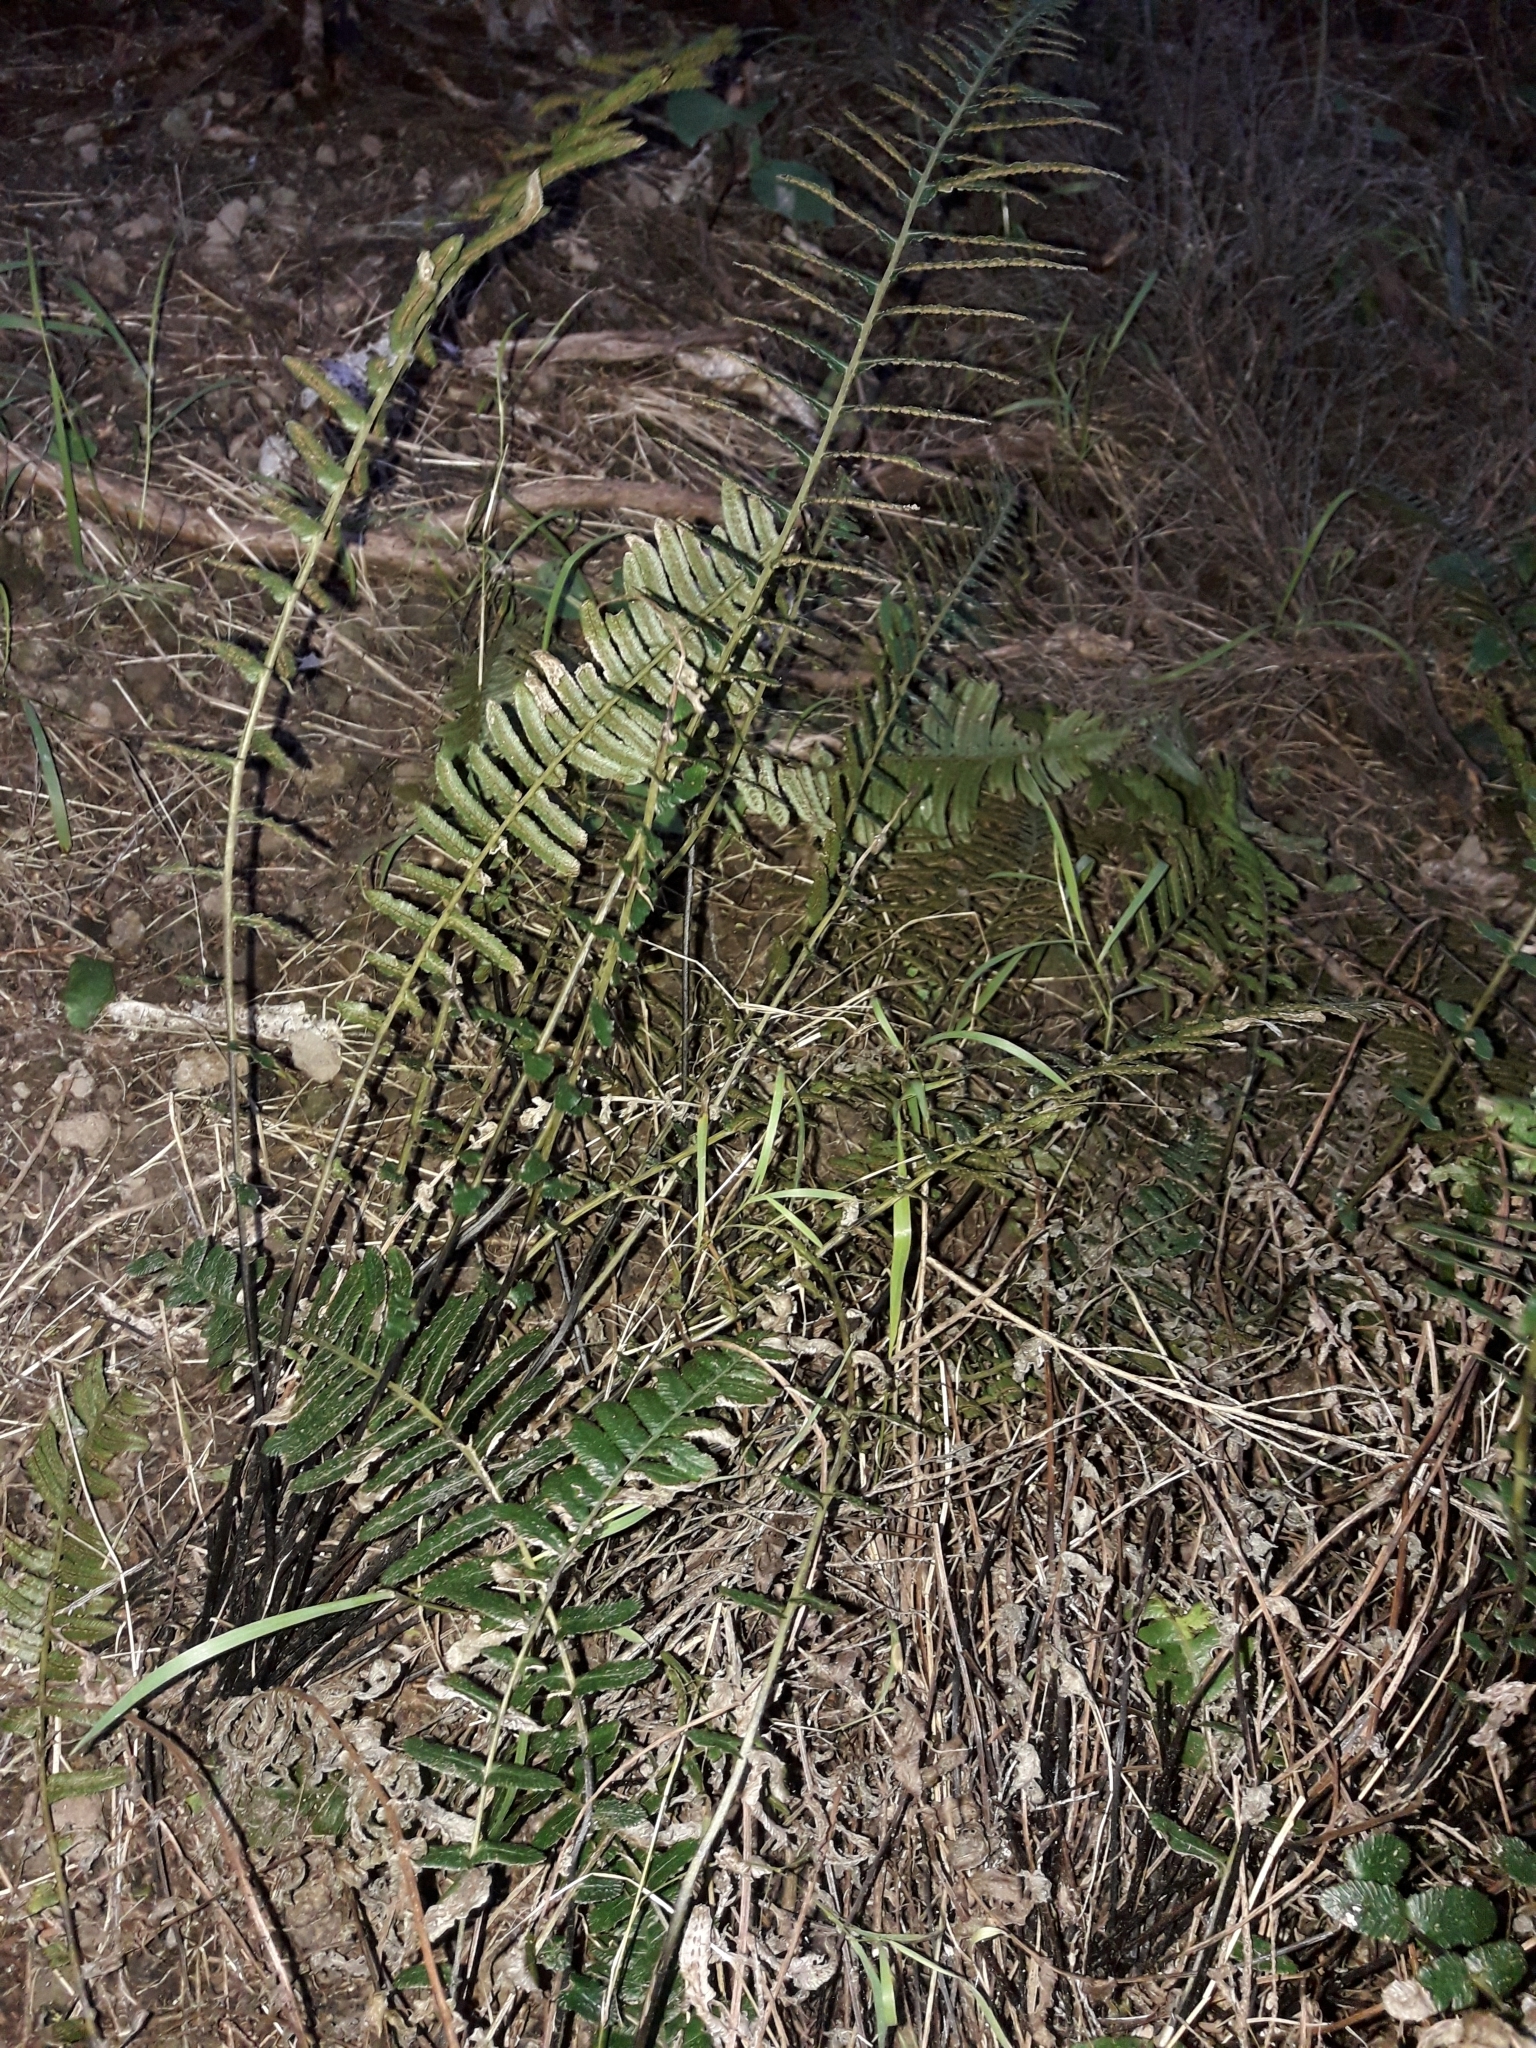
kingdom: Plantae
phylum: Tracheophyta
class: Polypodiopsida
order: Polypodiales
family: Blechnaceae
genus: Doodia
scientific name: Doodia australis
